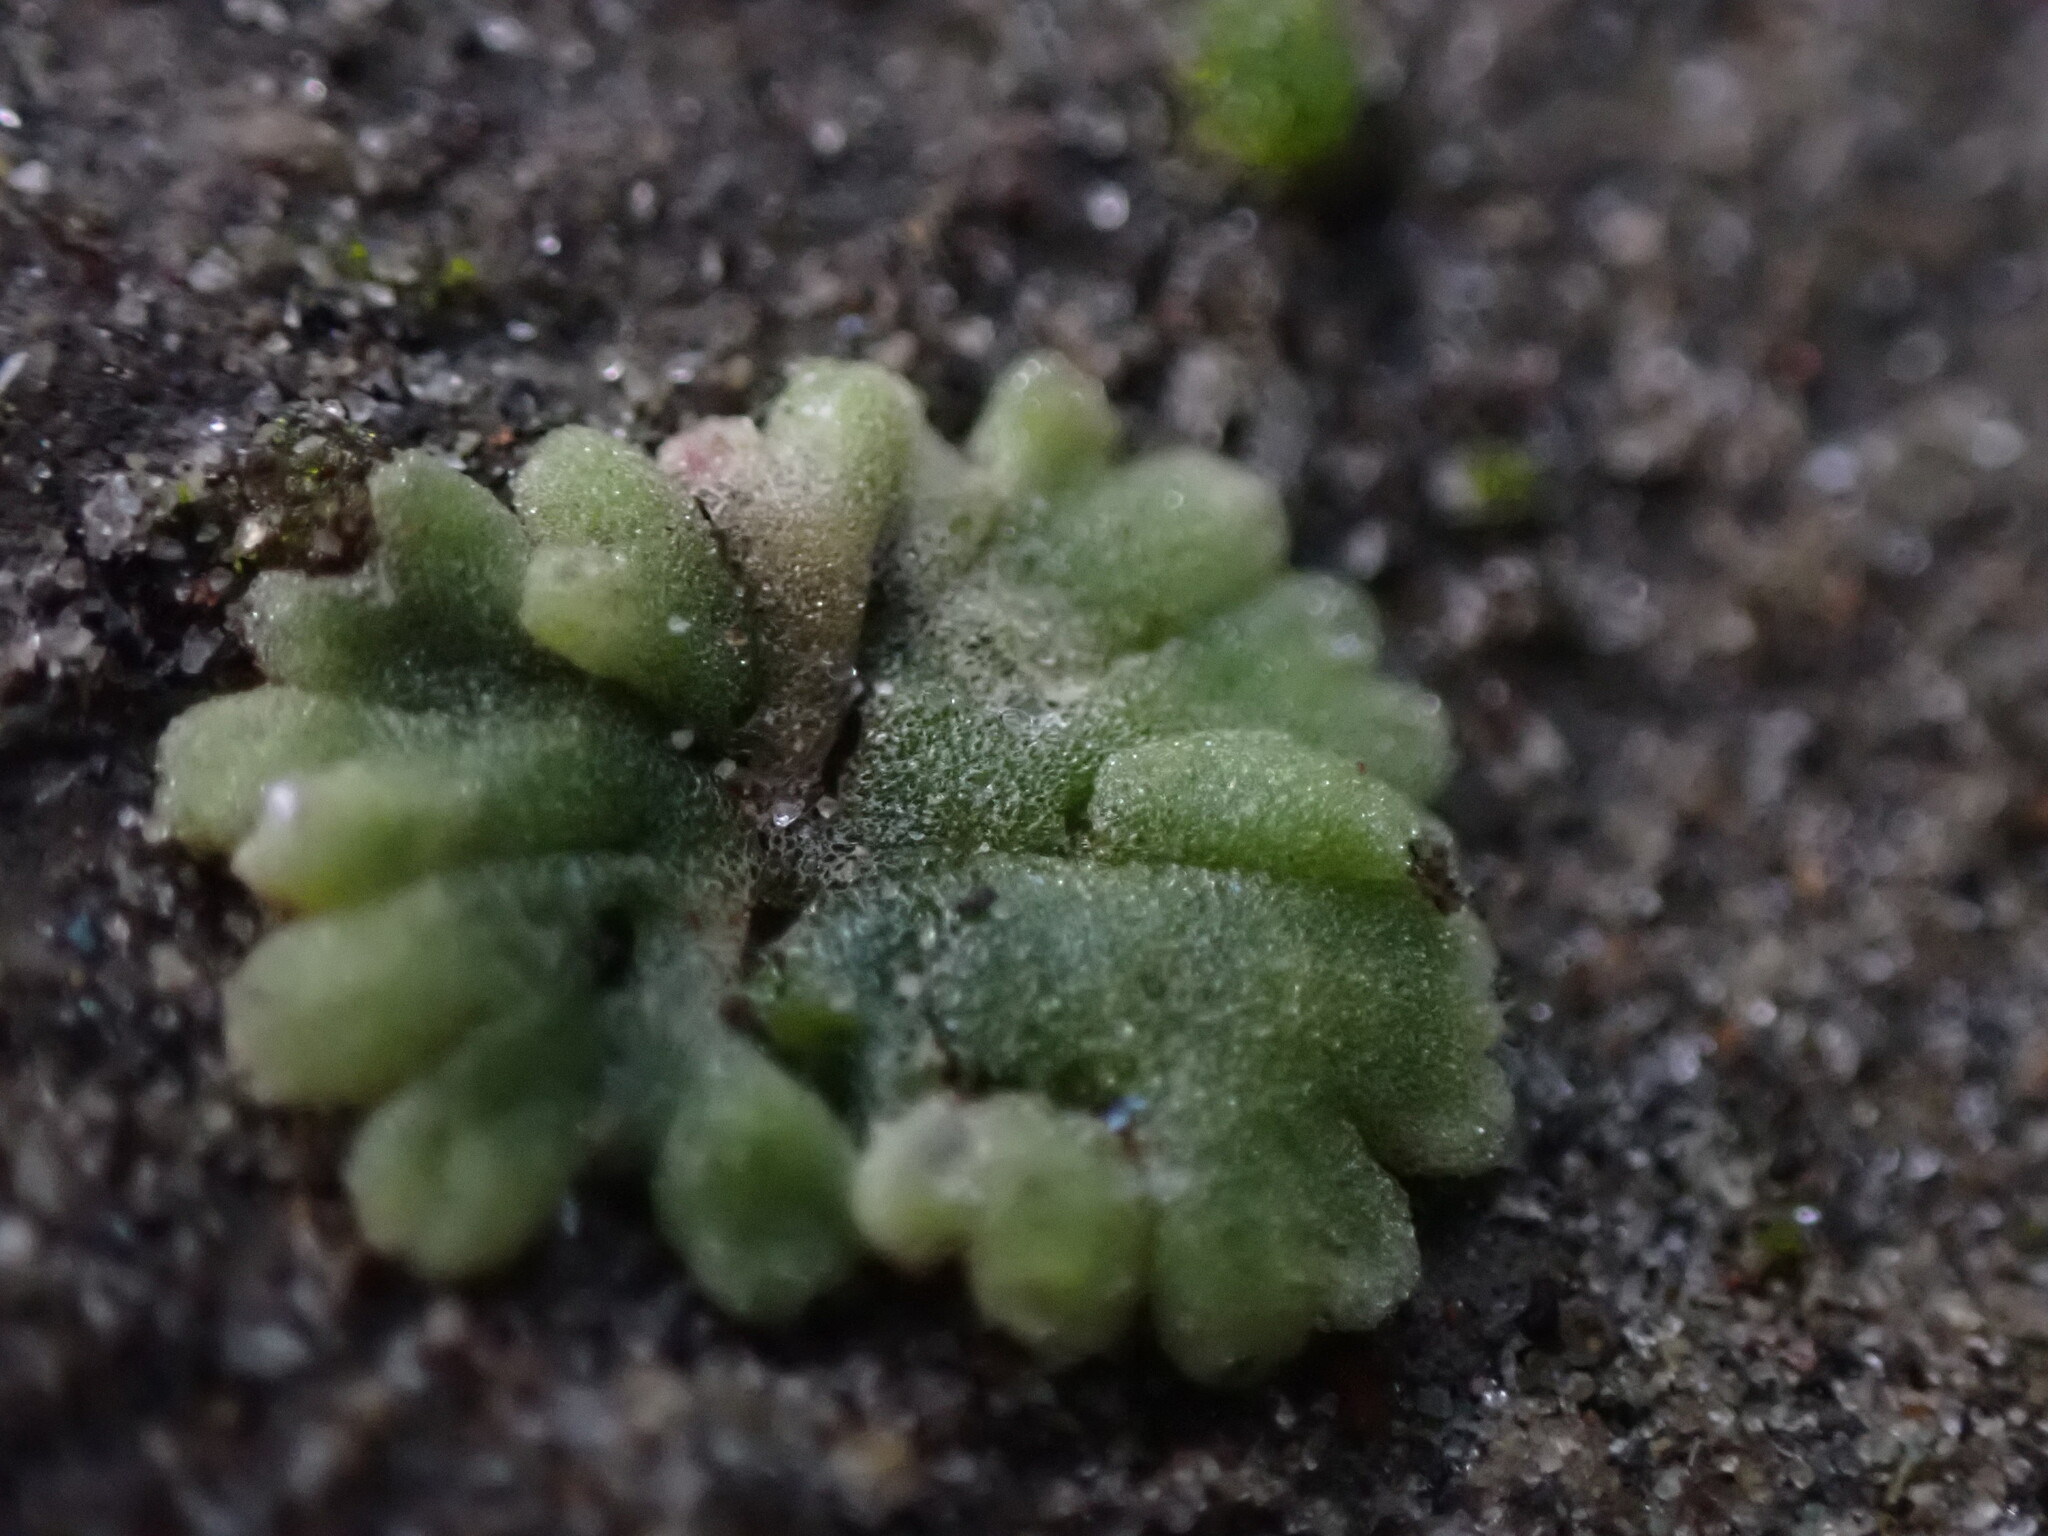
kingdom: Plantae
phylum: Marchantiophyta
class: Marchantiopsida
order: Marchantiales
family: Ricciaceae
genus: Riccia
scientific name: Riccia frostii
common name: Frost s crystalwort
